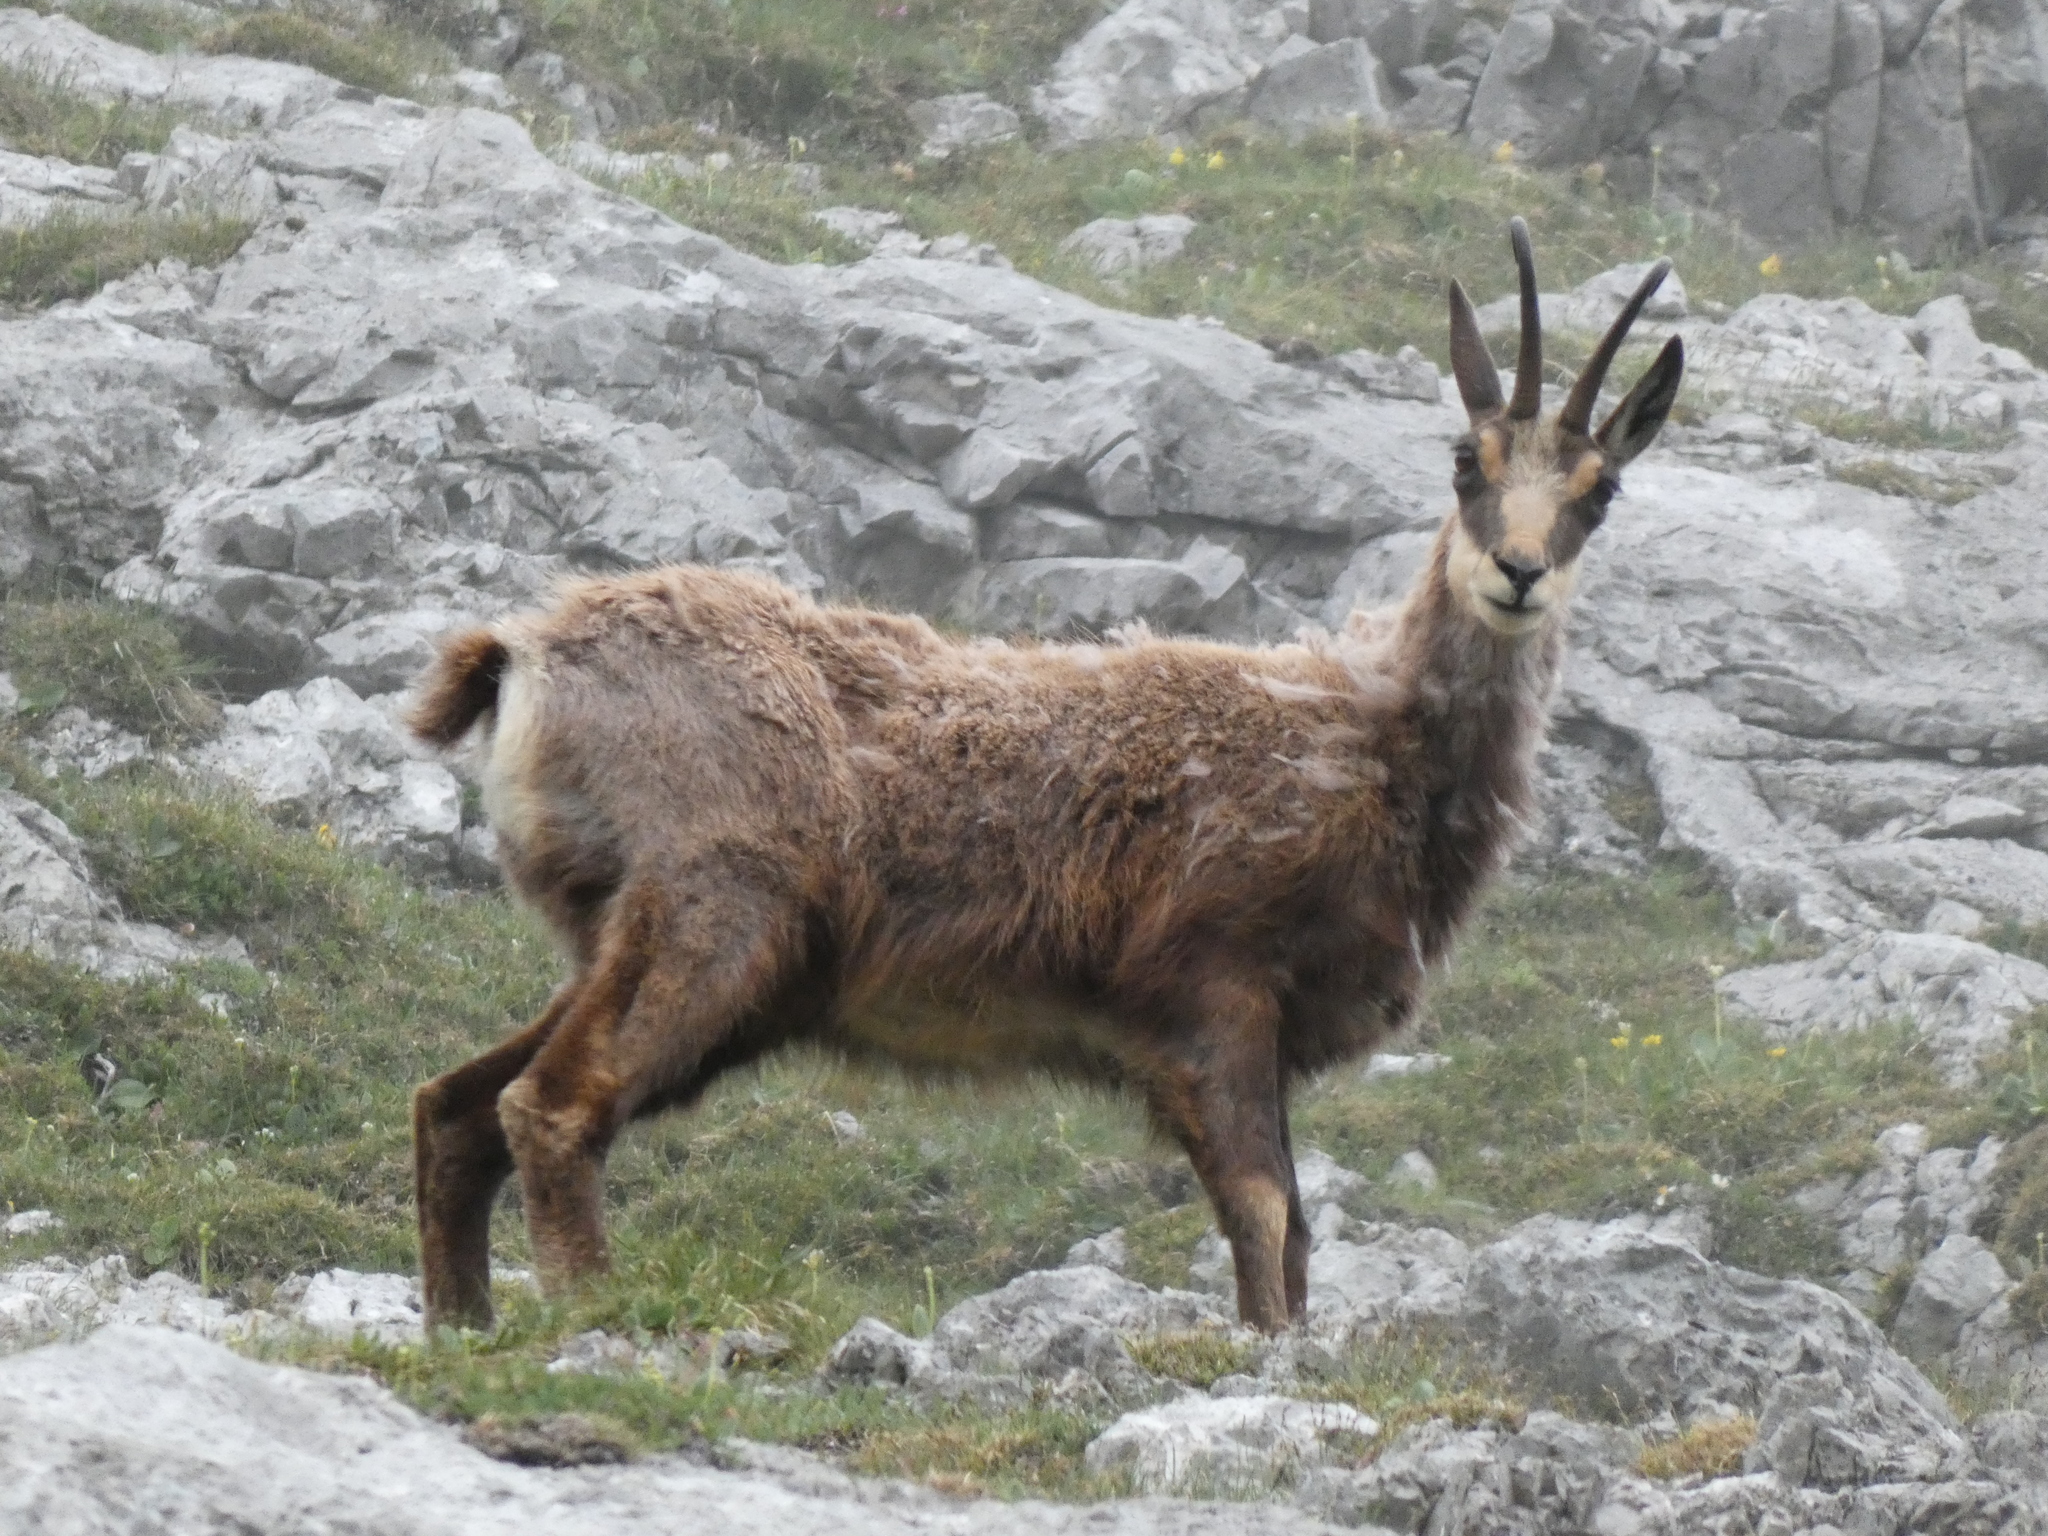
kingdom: Animalia
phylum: Chordata
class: Mammalia
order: Artiodactyla
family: Bovidae
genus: Rupicapra
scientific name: Rupicapra rupicapra
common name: Chamois
